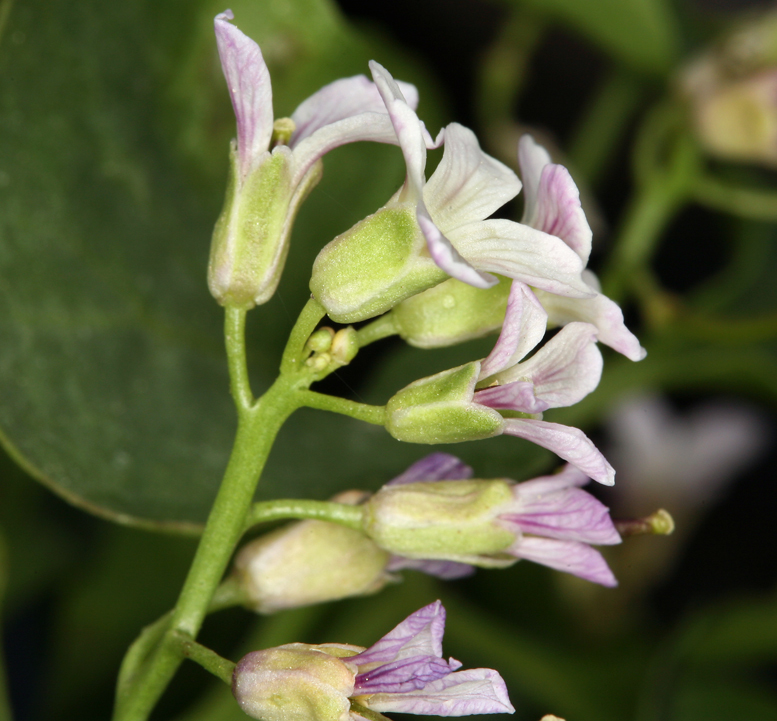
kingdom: Plantae
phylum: Tracheophyta
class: Magnoliopsida
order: Brassicales
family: Brassicaceae
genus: Hesperidanthus
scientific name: Hesperidanthus jaegeri
